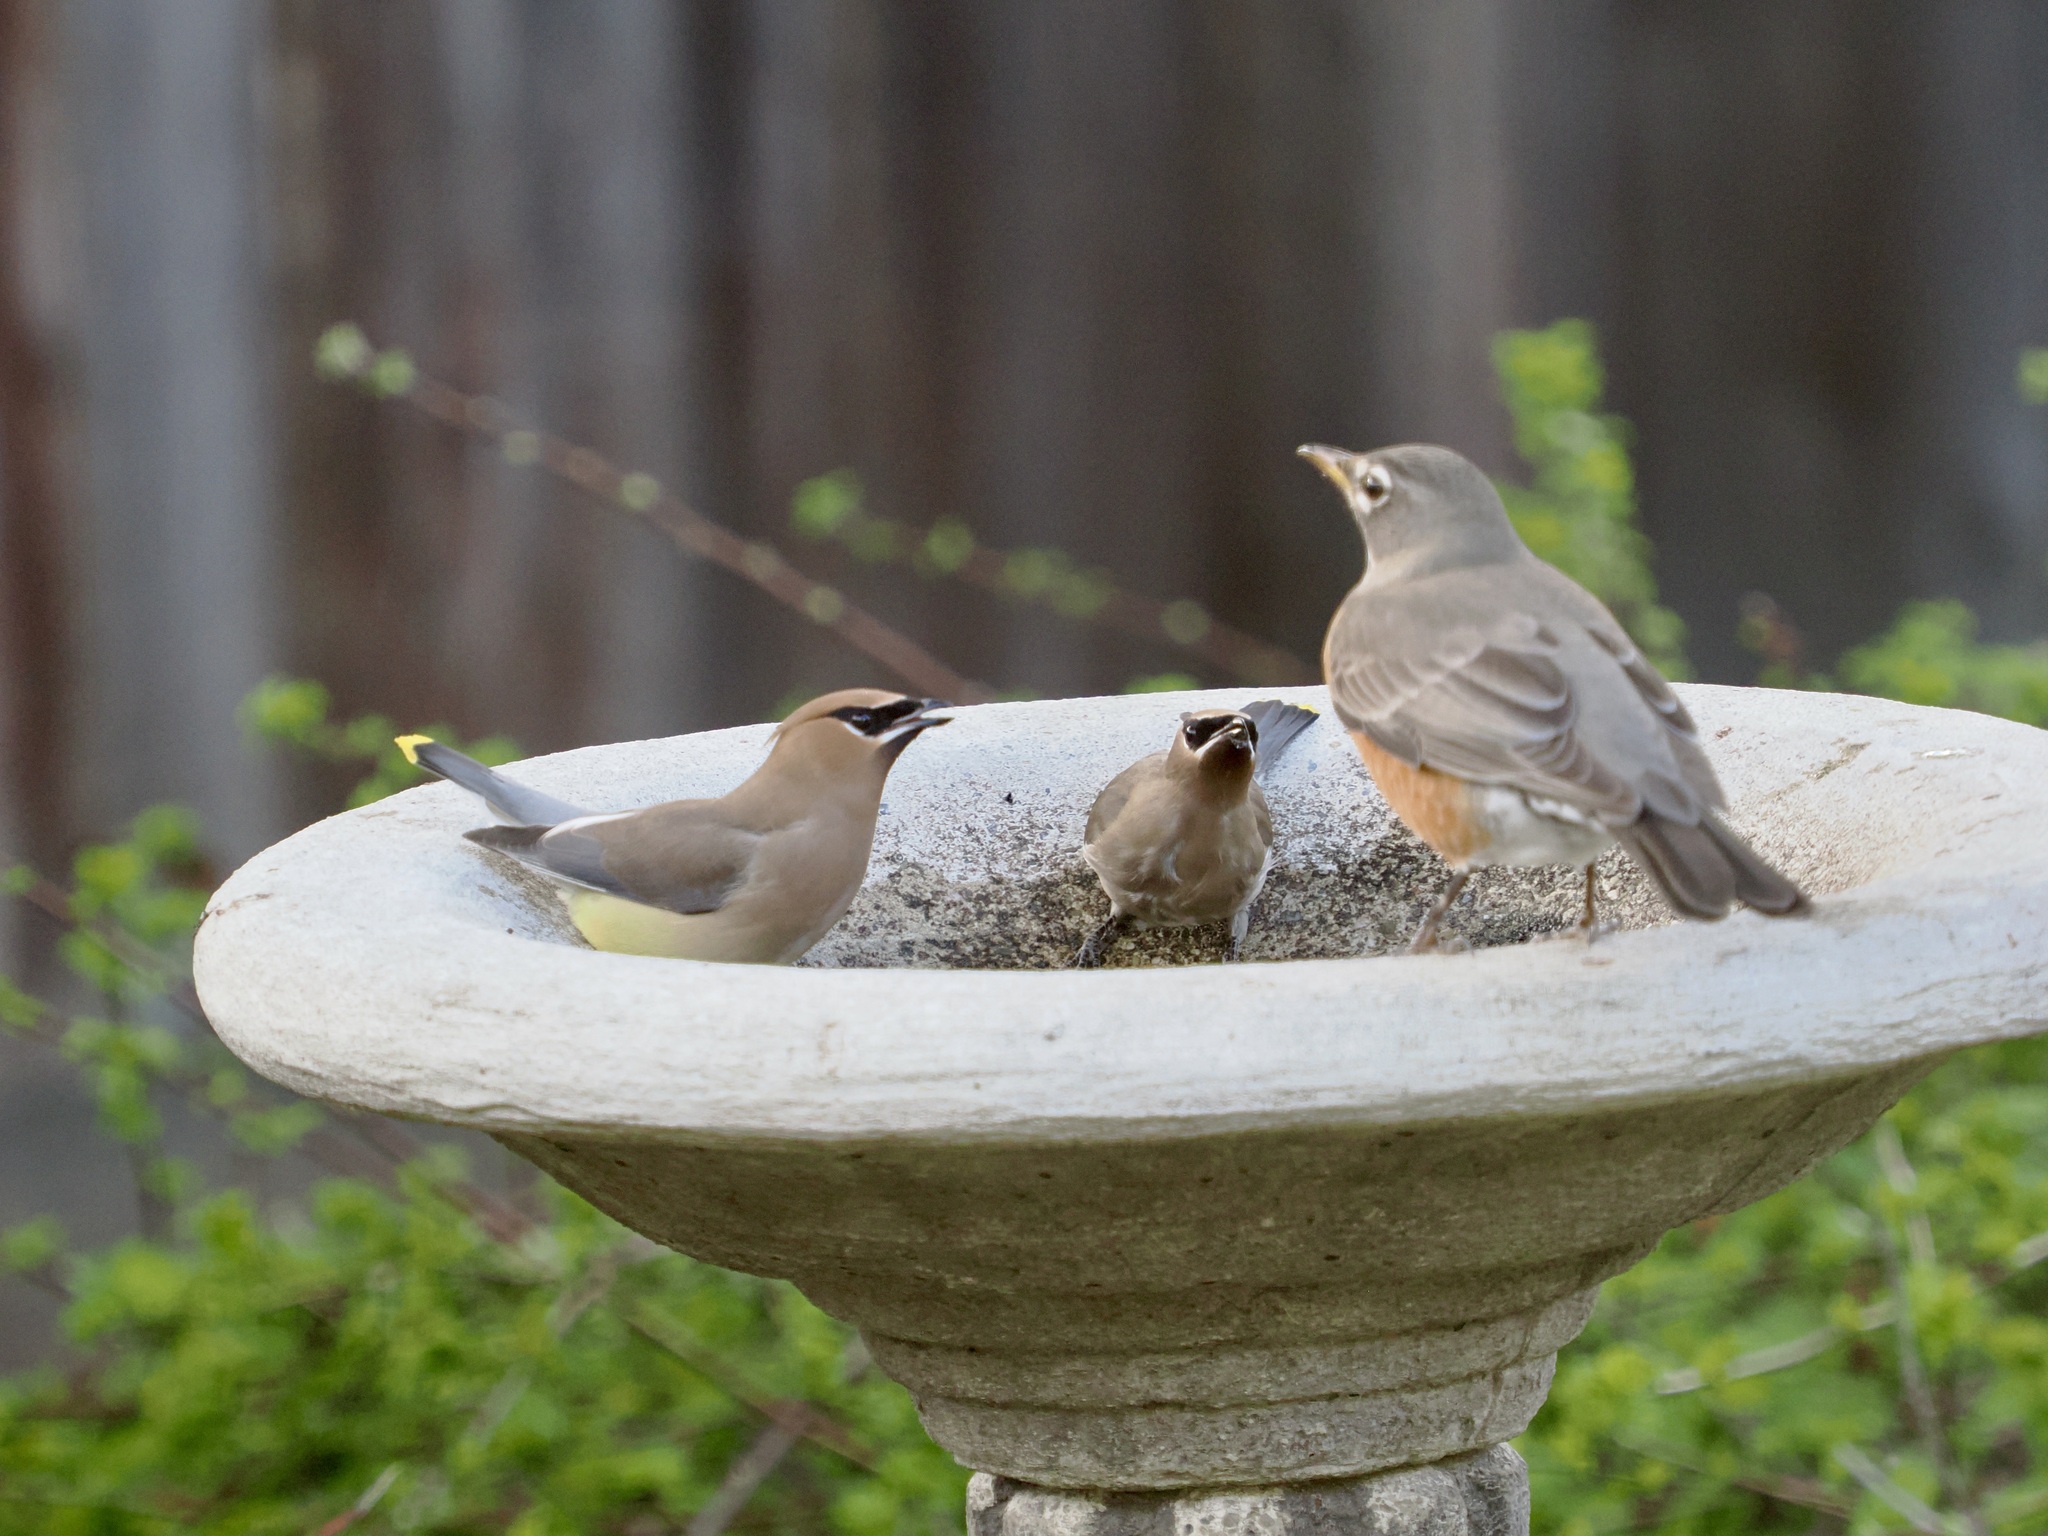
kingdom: Animalia
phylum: Chordata
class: Aves
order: Passeriformes
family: Bombycillidae
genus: Bombycilla
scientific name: Bombycilla cedrorum
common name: Cedar waxwing
